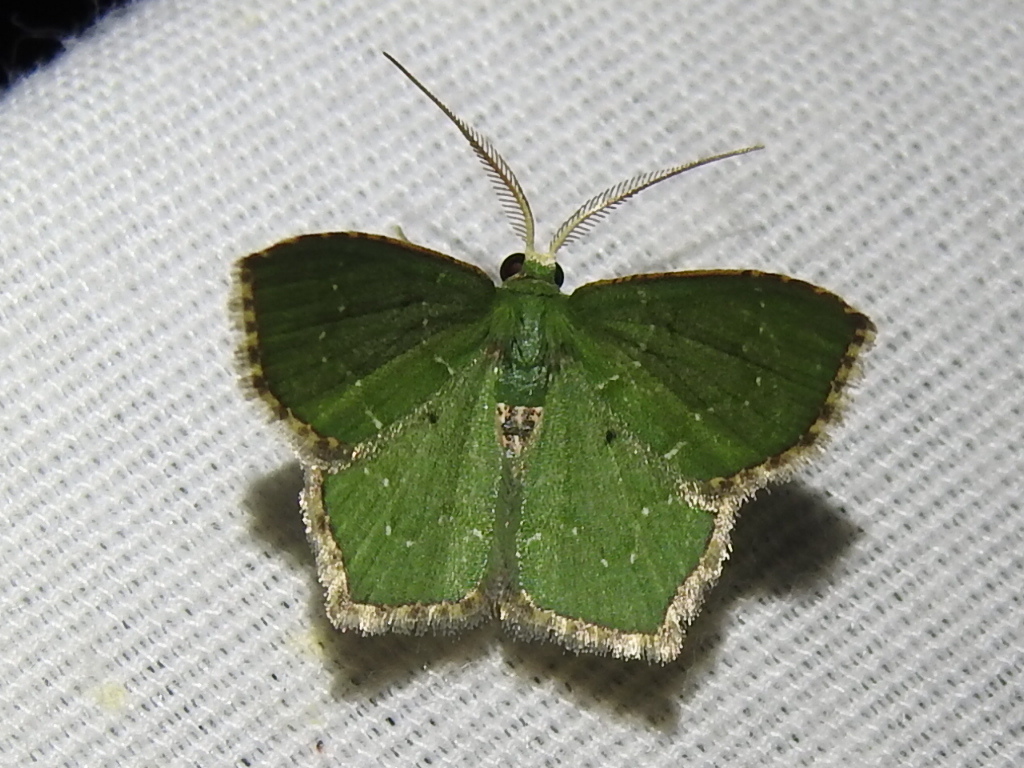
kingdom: Animalia
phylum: Arthropoda
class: Insecta
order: Lepidoptera
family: Geometridae
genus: Chloropteryx
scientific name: Chloropteryx nordicaria
